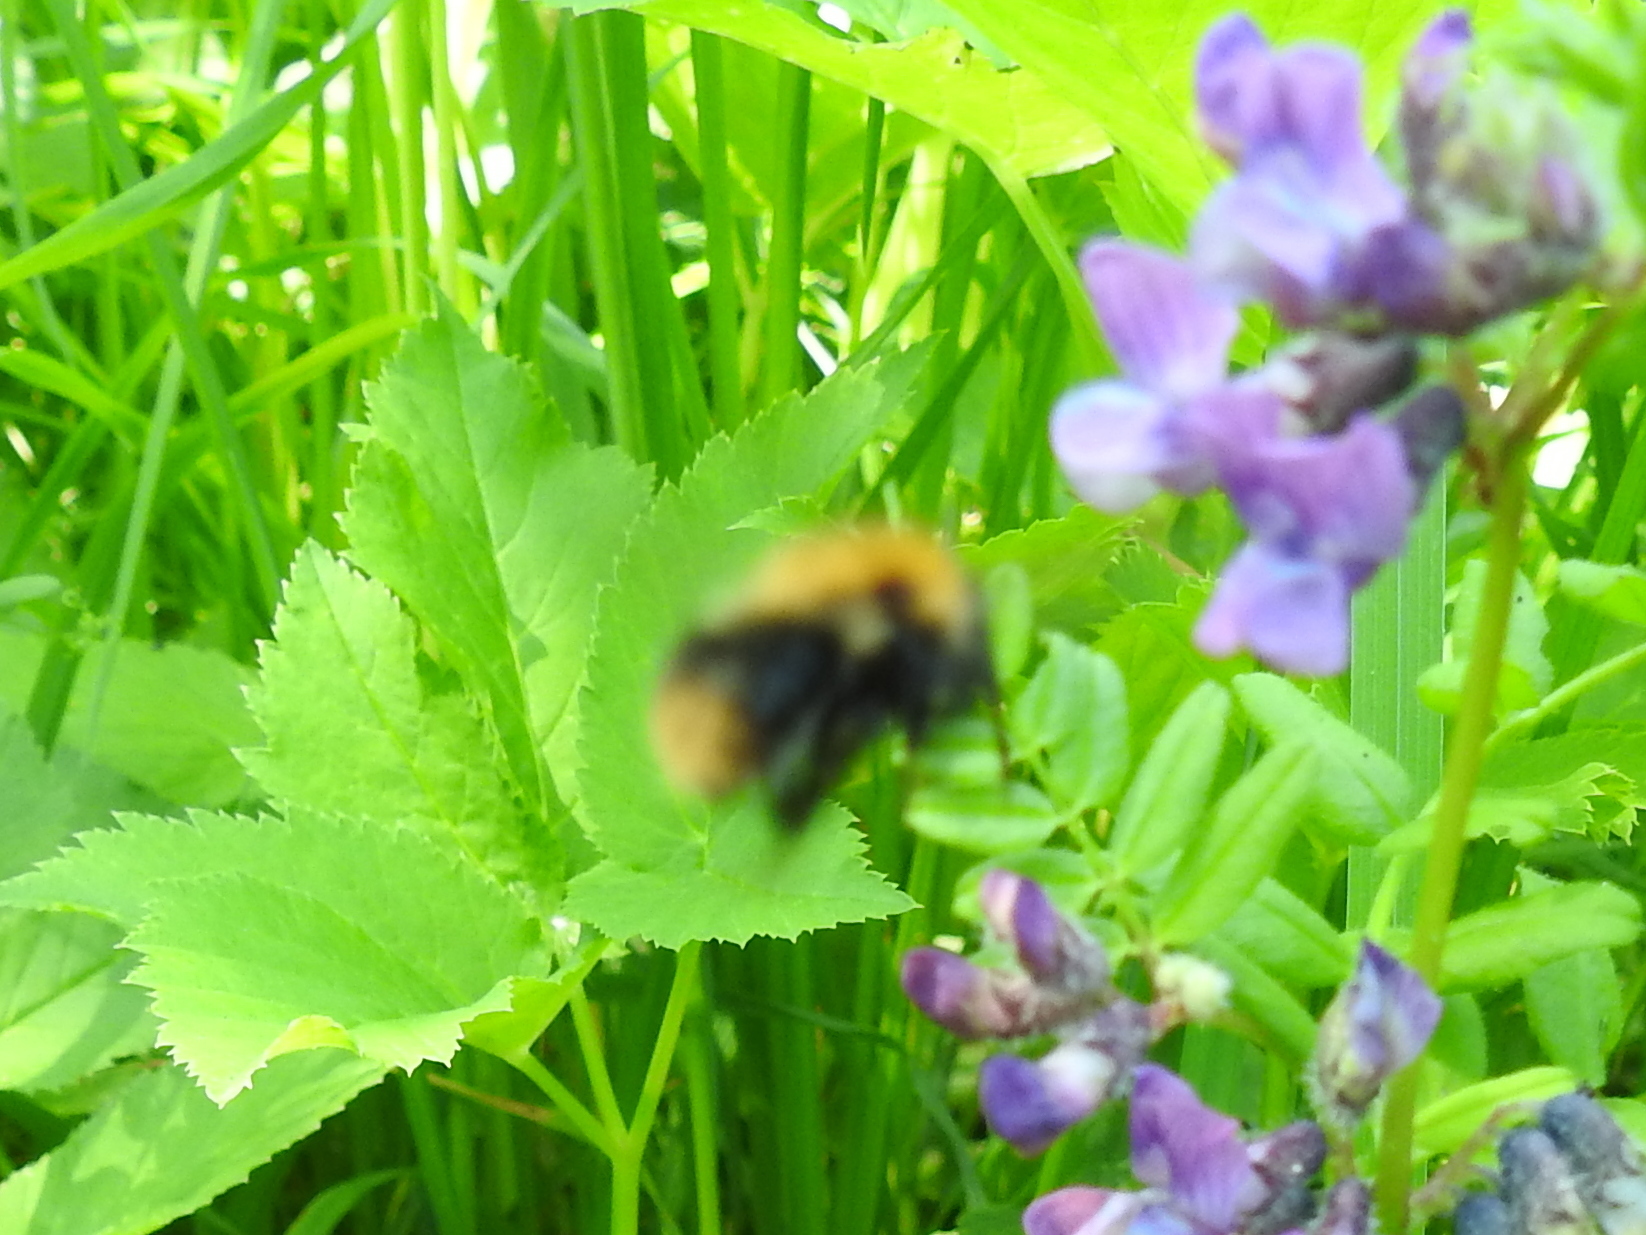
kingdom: Animalia
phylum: Arthropoda
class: Insecta
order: Hymenoptera
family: Apidae
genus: Bombus
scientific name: Bombus pascuorum
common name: Common carder bee
